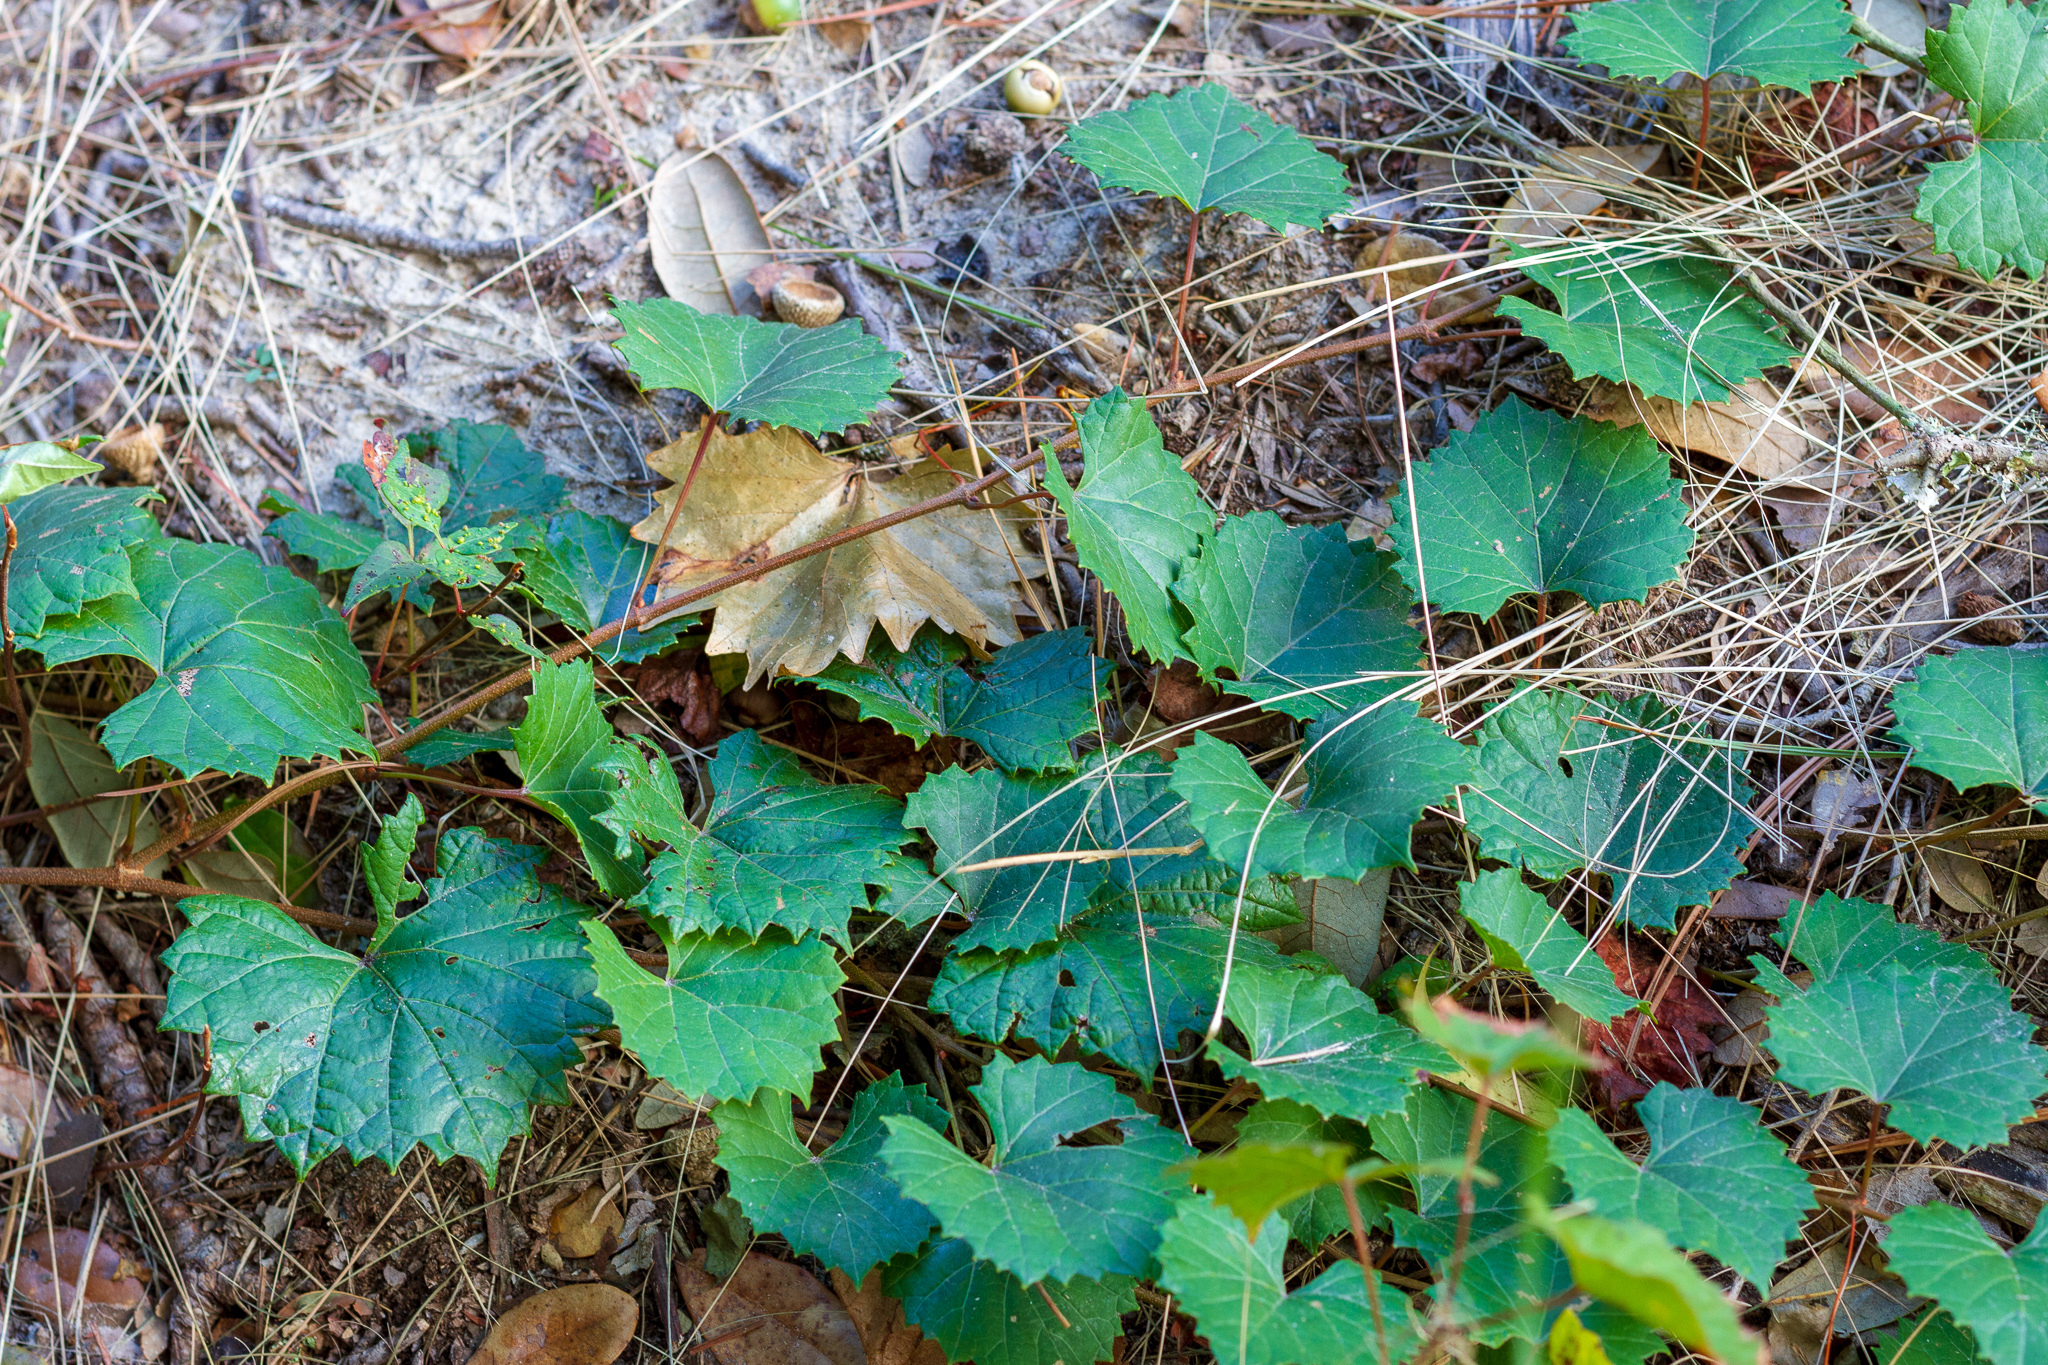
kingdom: Plantae
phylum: Tracheophyta
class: Magnoliopsida
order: Vitales
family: Vitaceae
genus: Vitis
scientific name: Vitis rotundifolia
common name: Muscadine grape
